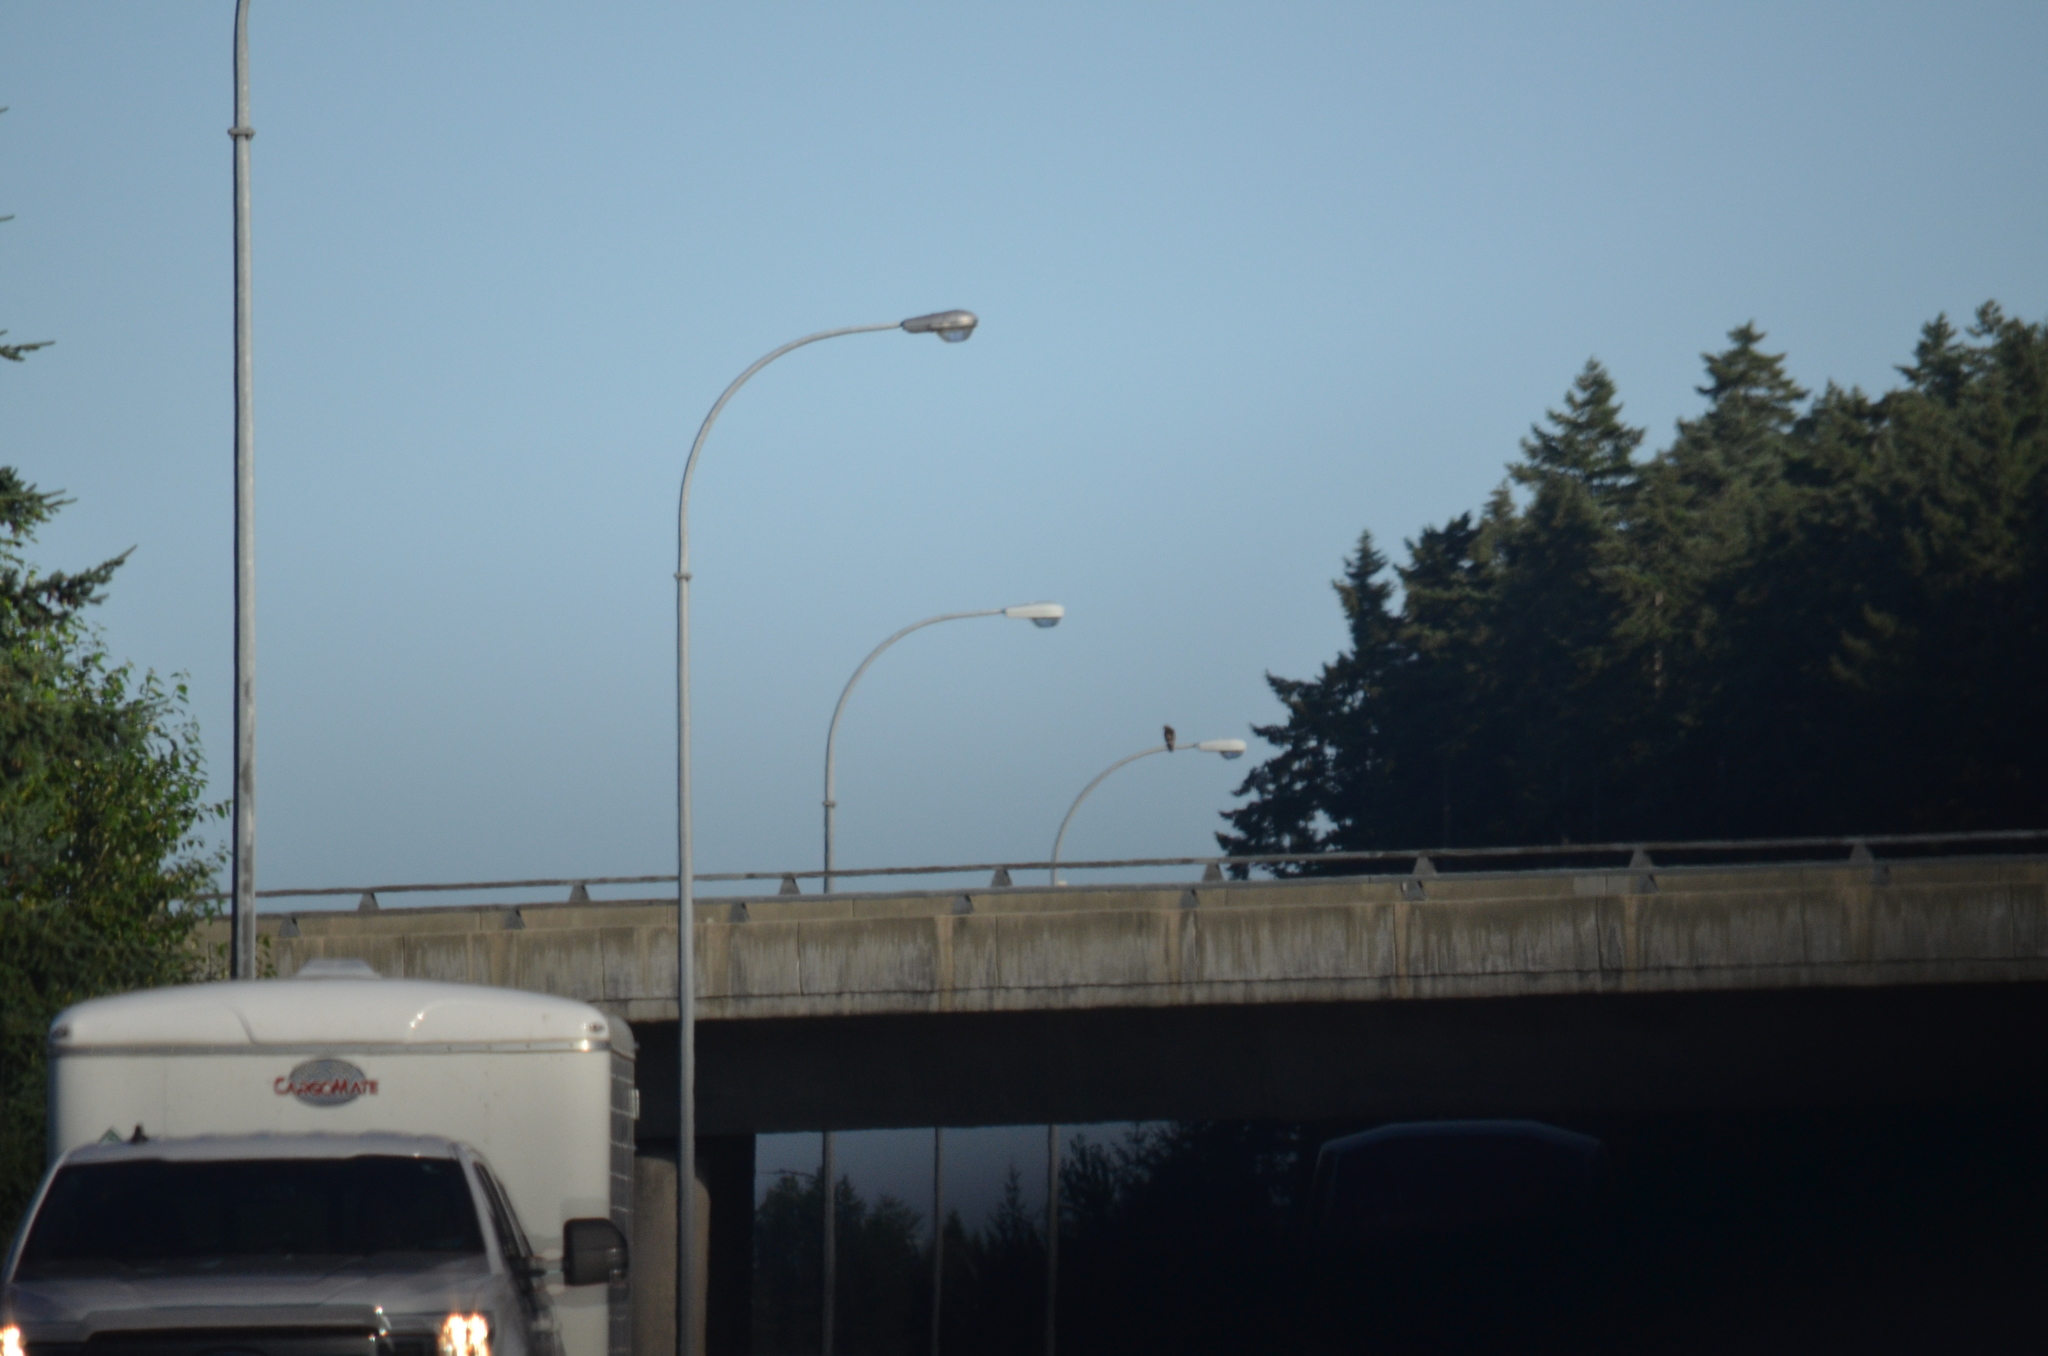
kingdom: Animalia
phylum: Chordata
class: Aves
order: Accipitriformes
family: Accipitridae
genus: Buteo
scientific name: Buteo jamaicensis
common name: Red-tailed hawk
